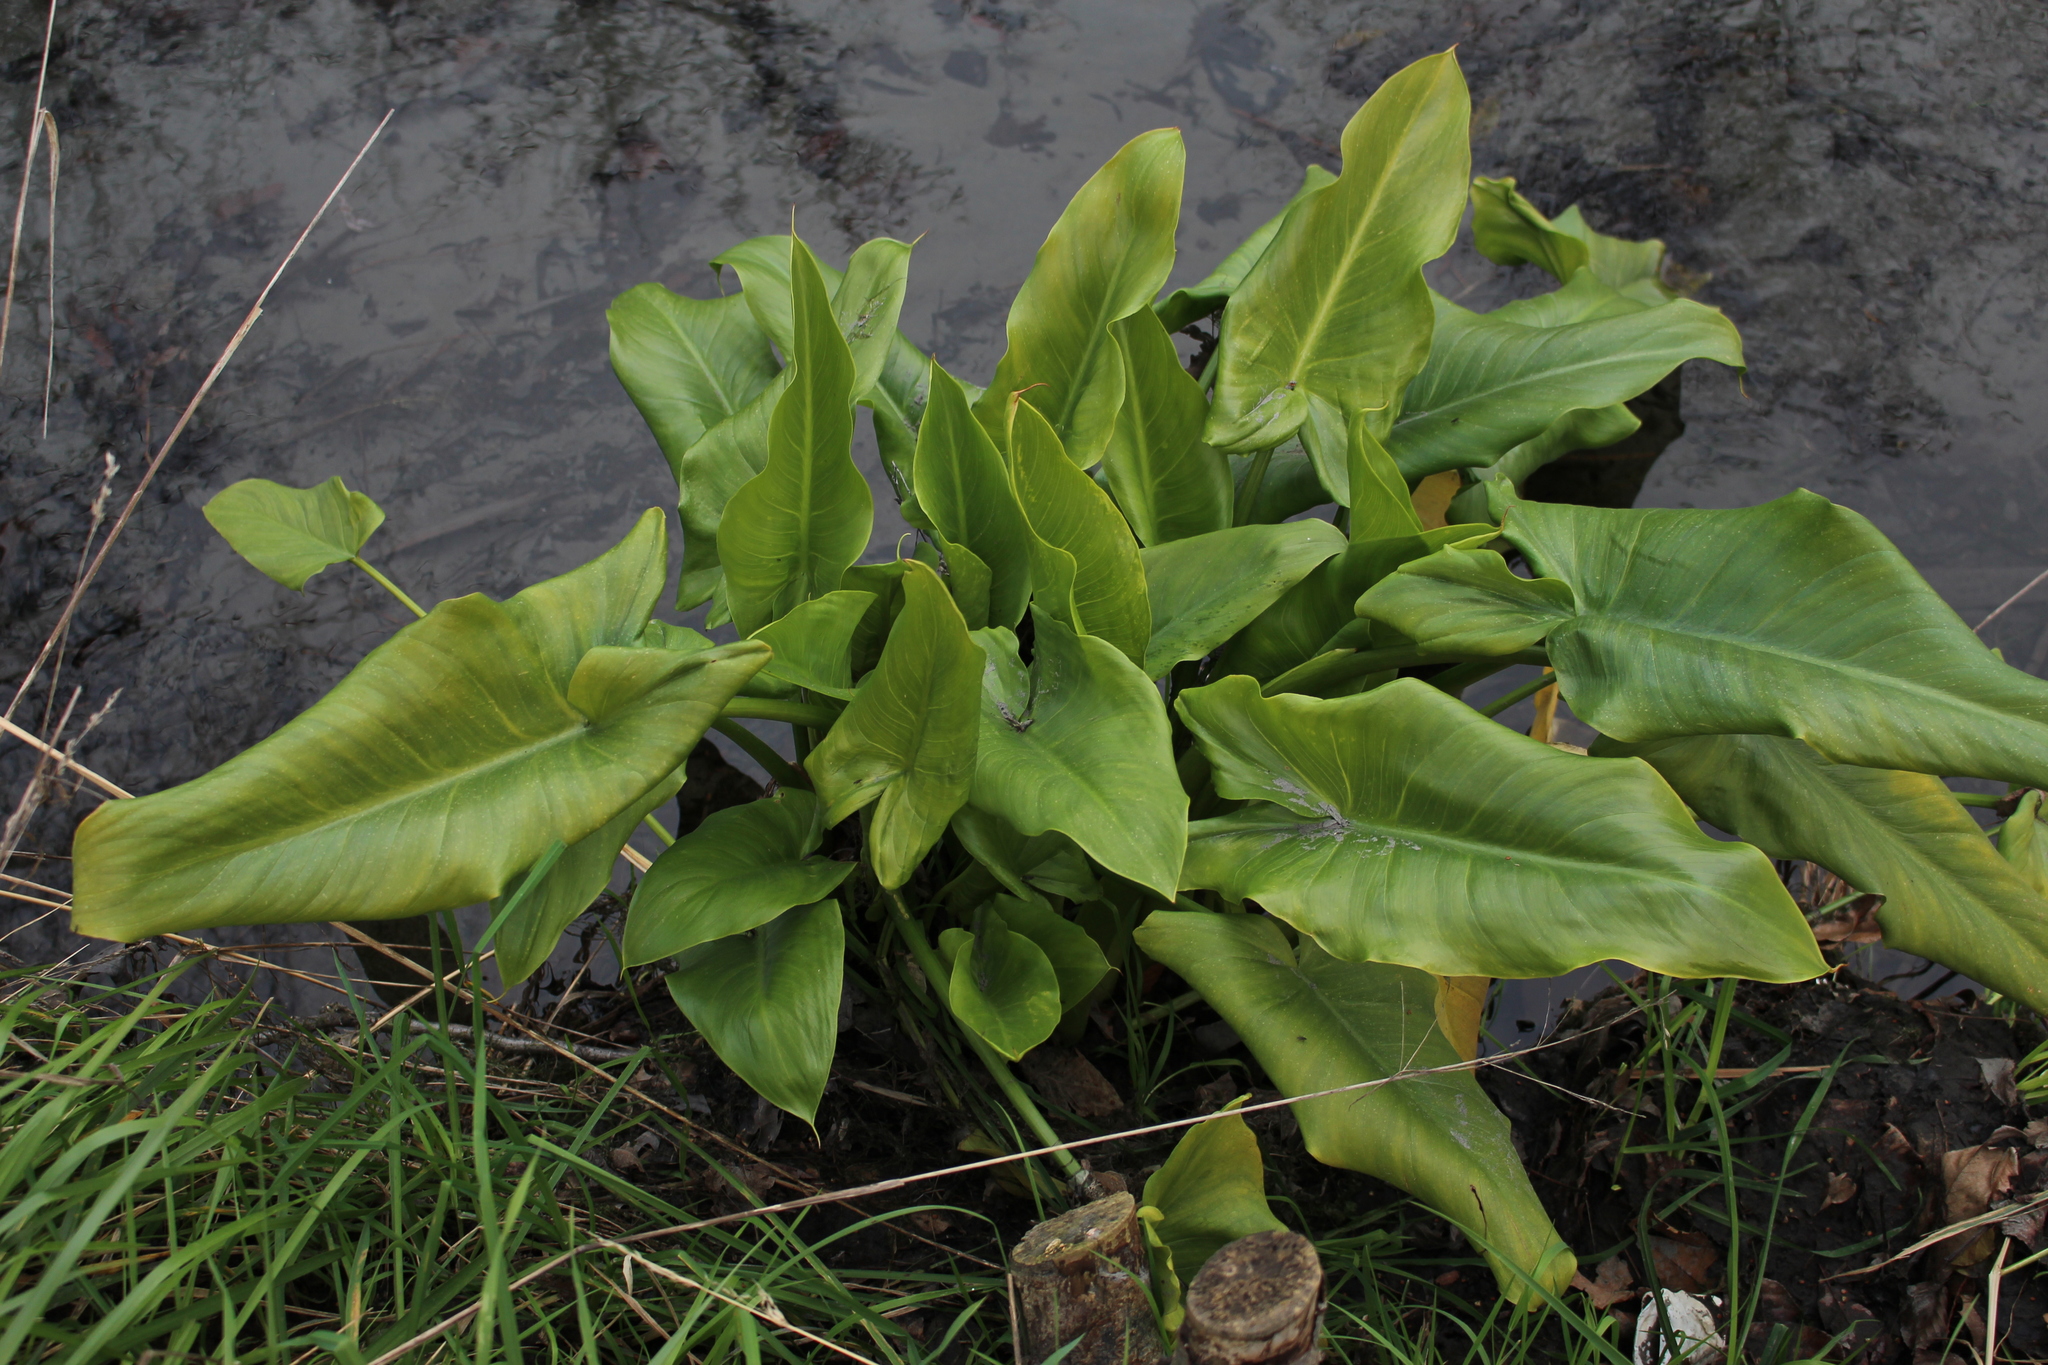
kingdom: Plantae
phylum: Tracheophyta
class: Liliopsida
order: Alismatales
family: Araceae
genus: Zantedeschia
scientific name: Zantedeschia aethiopica
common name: Altar-lily
